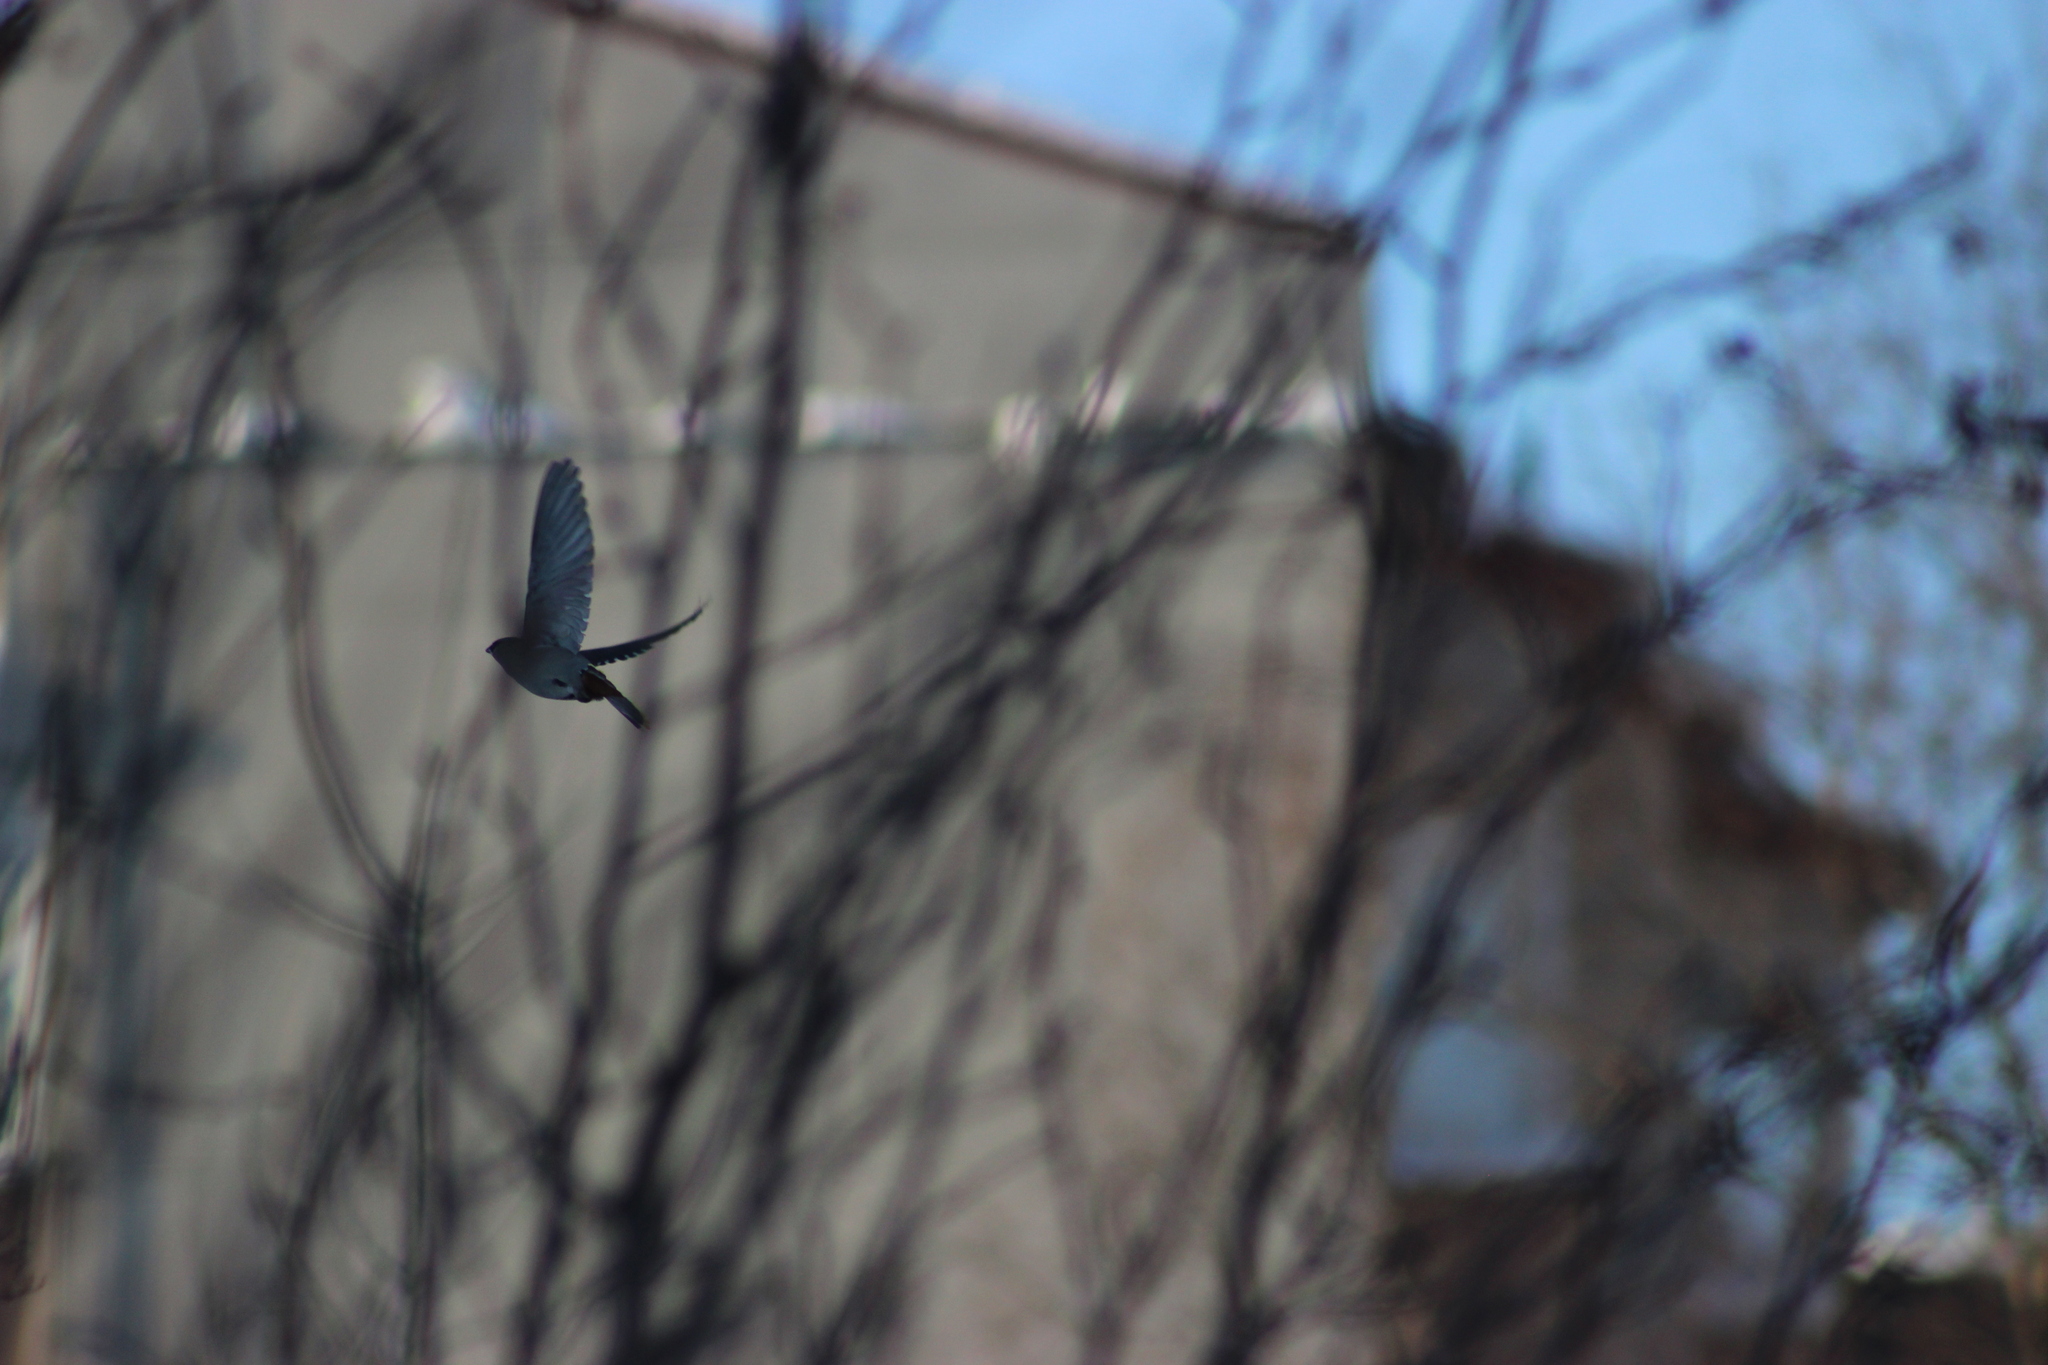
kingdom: Animalia
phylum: Chordata
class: Aves
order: Passeriformes
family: Bombycillidae
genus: Bombycilla
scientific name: Bombycilla garrulus
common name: Bohemian waxwing
